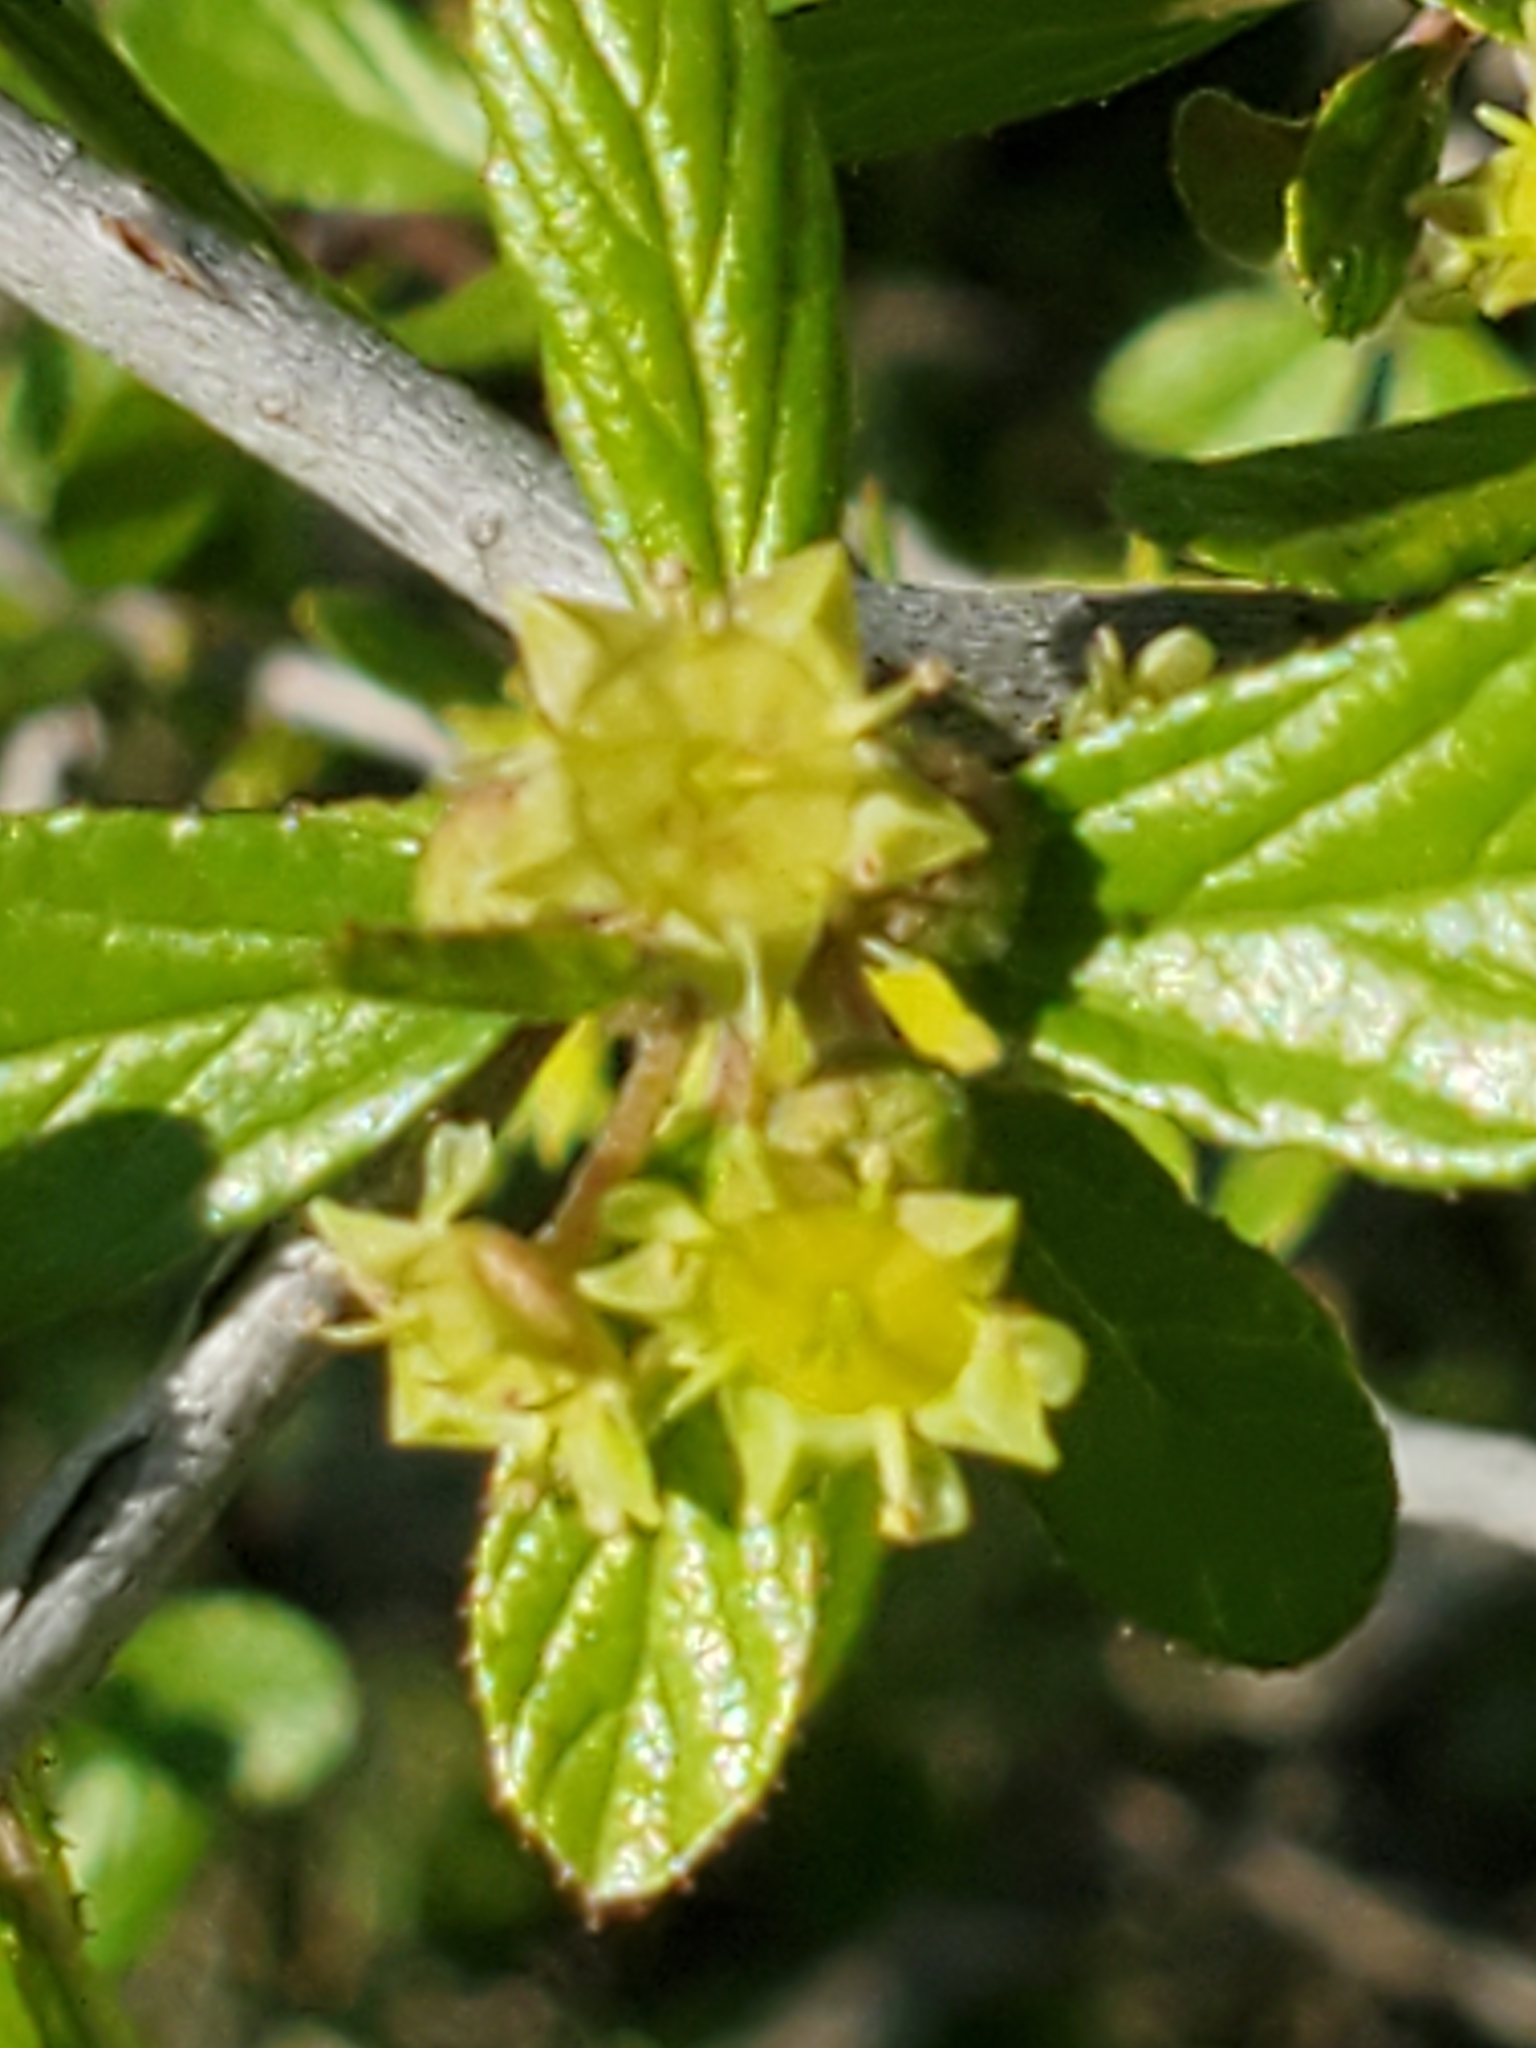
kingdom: Plantae
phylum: Tracheophyta
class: Magnoliopsida
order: Rosales
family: Rhamnaceae
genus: Colubrina
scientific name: Colubrina texensis
